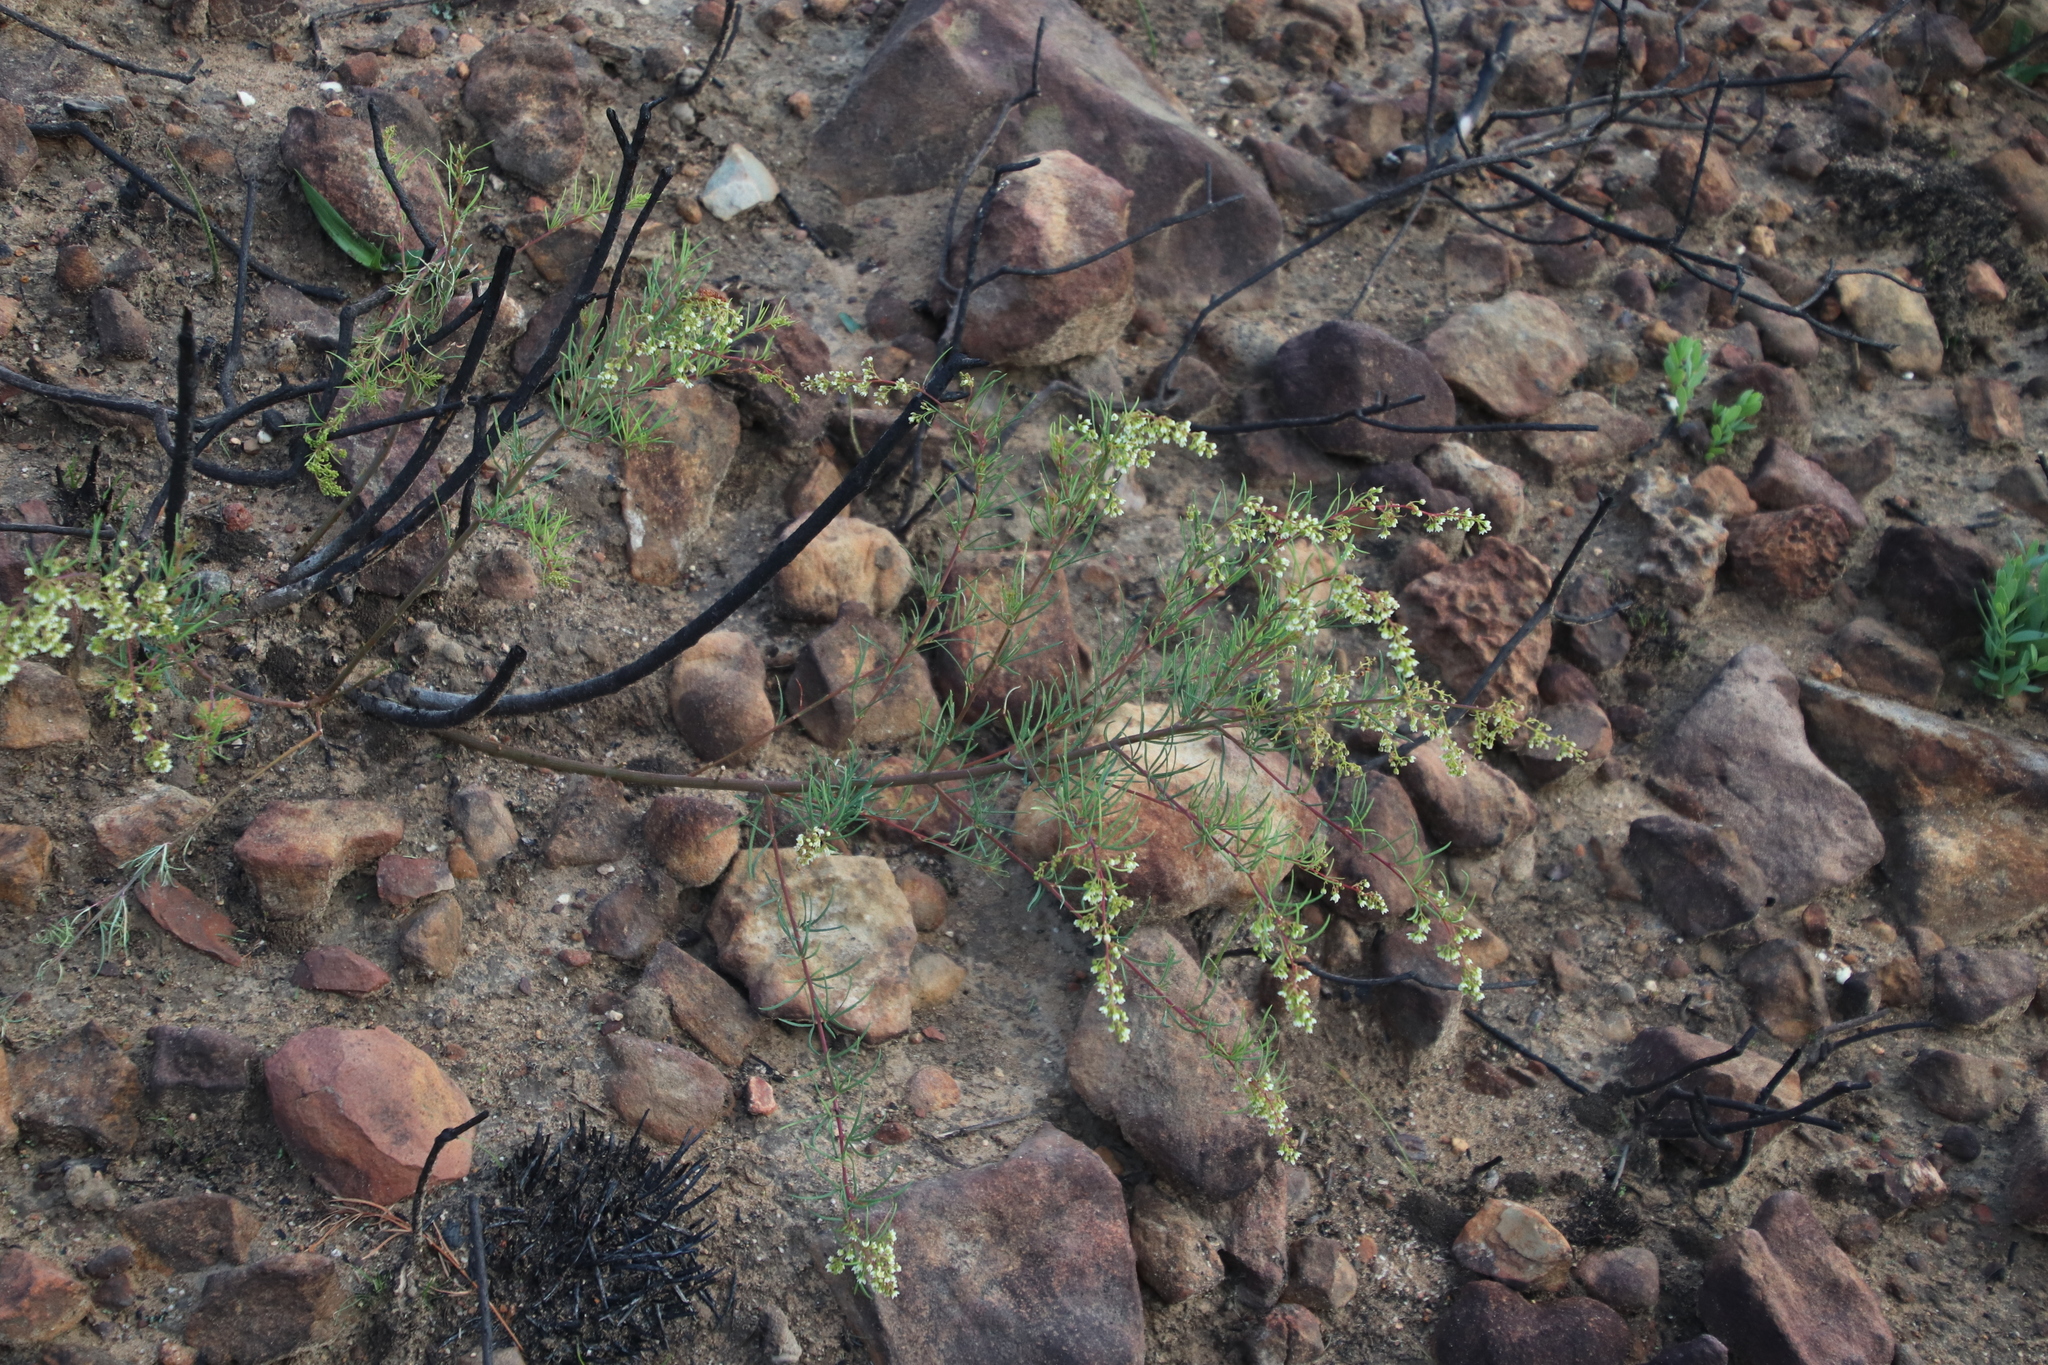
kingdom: Plantae
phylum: Tracheophyta
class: Magnoliopsida
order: Sapindales
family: Anacardiaceae
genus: Searsia
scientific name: Searsia rosmarinifolia
